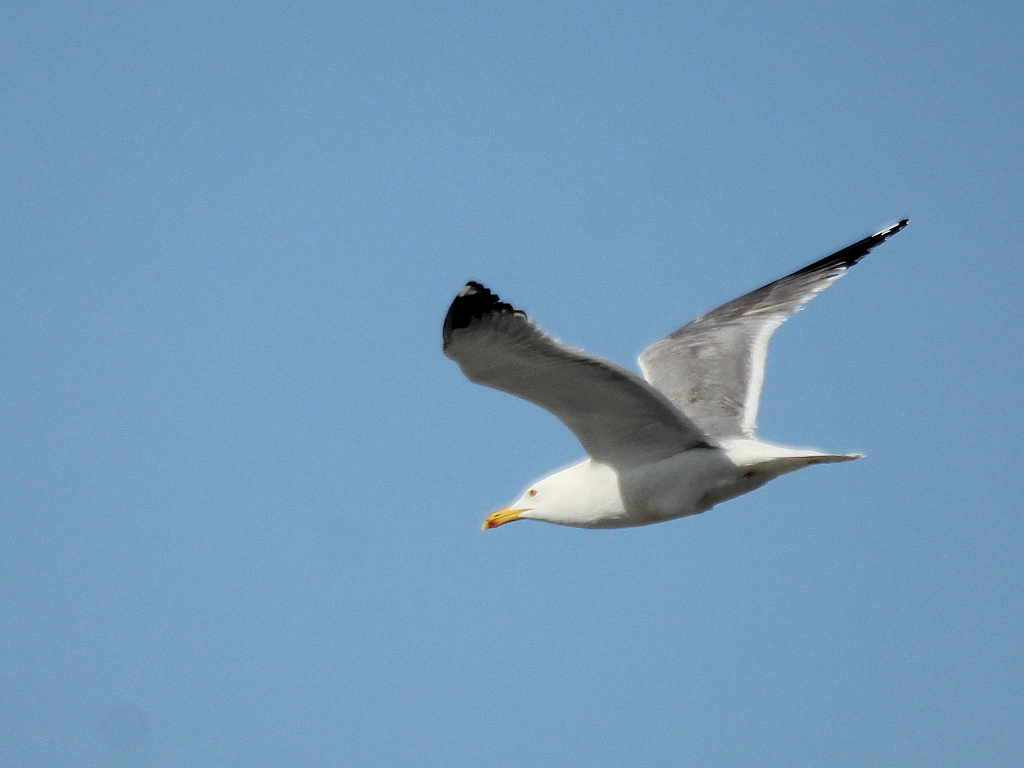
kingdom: Animalia
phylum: Chordata
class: Aves
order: Charadriiformes
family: Laridae
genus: Larus
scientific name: Larus fuscus
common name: Lesser black-backed gull
